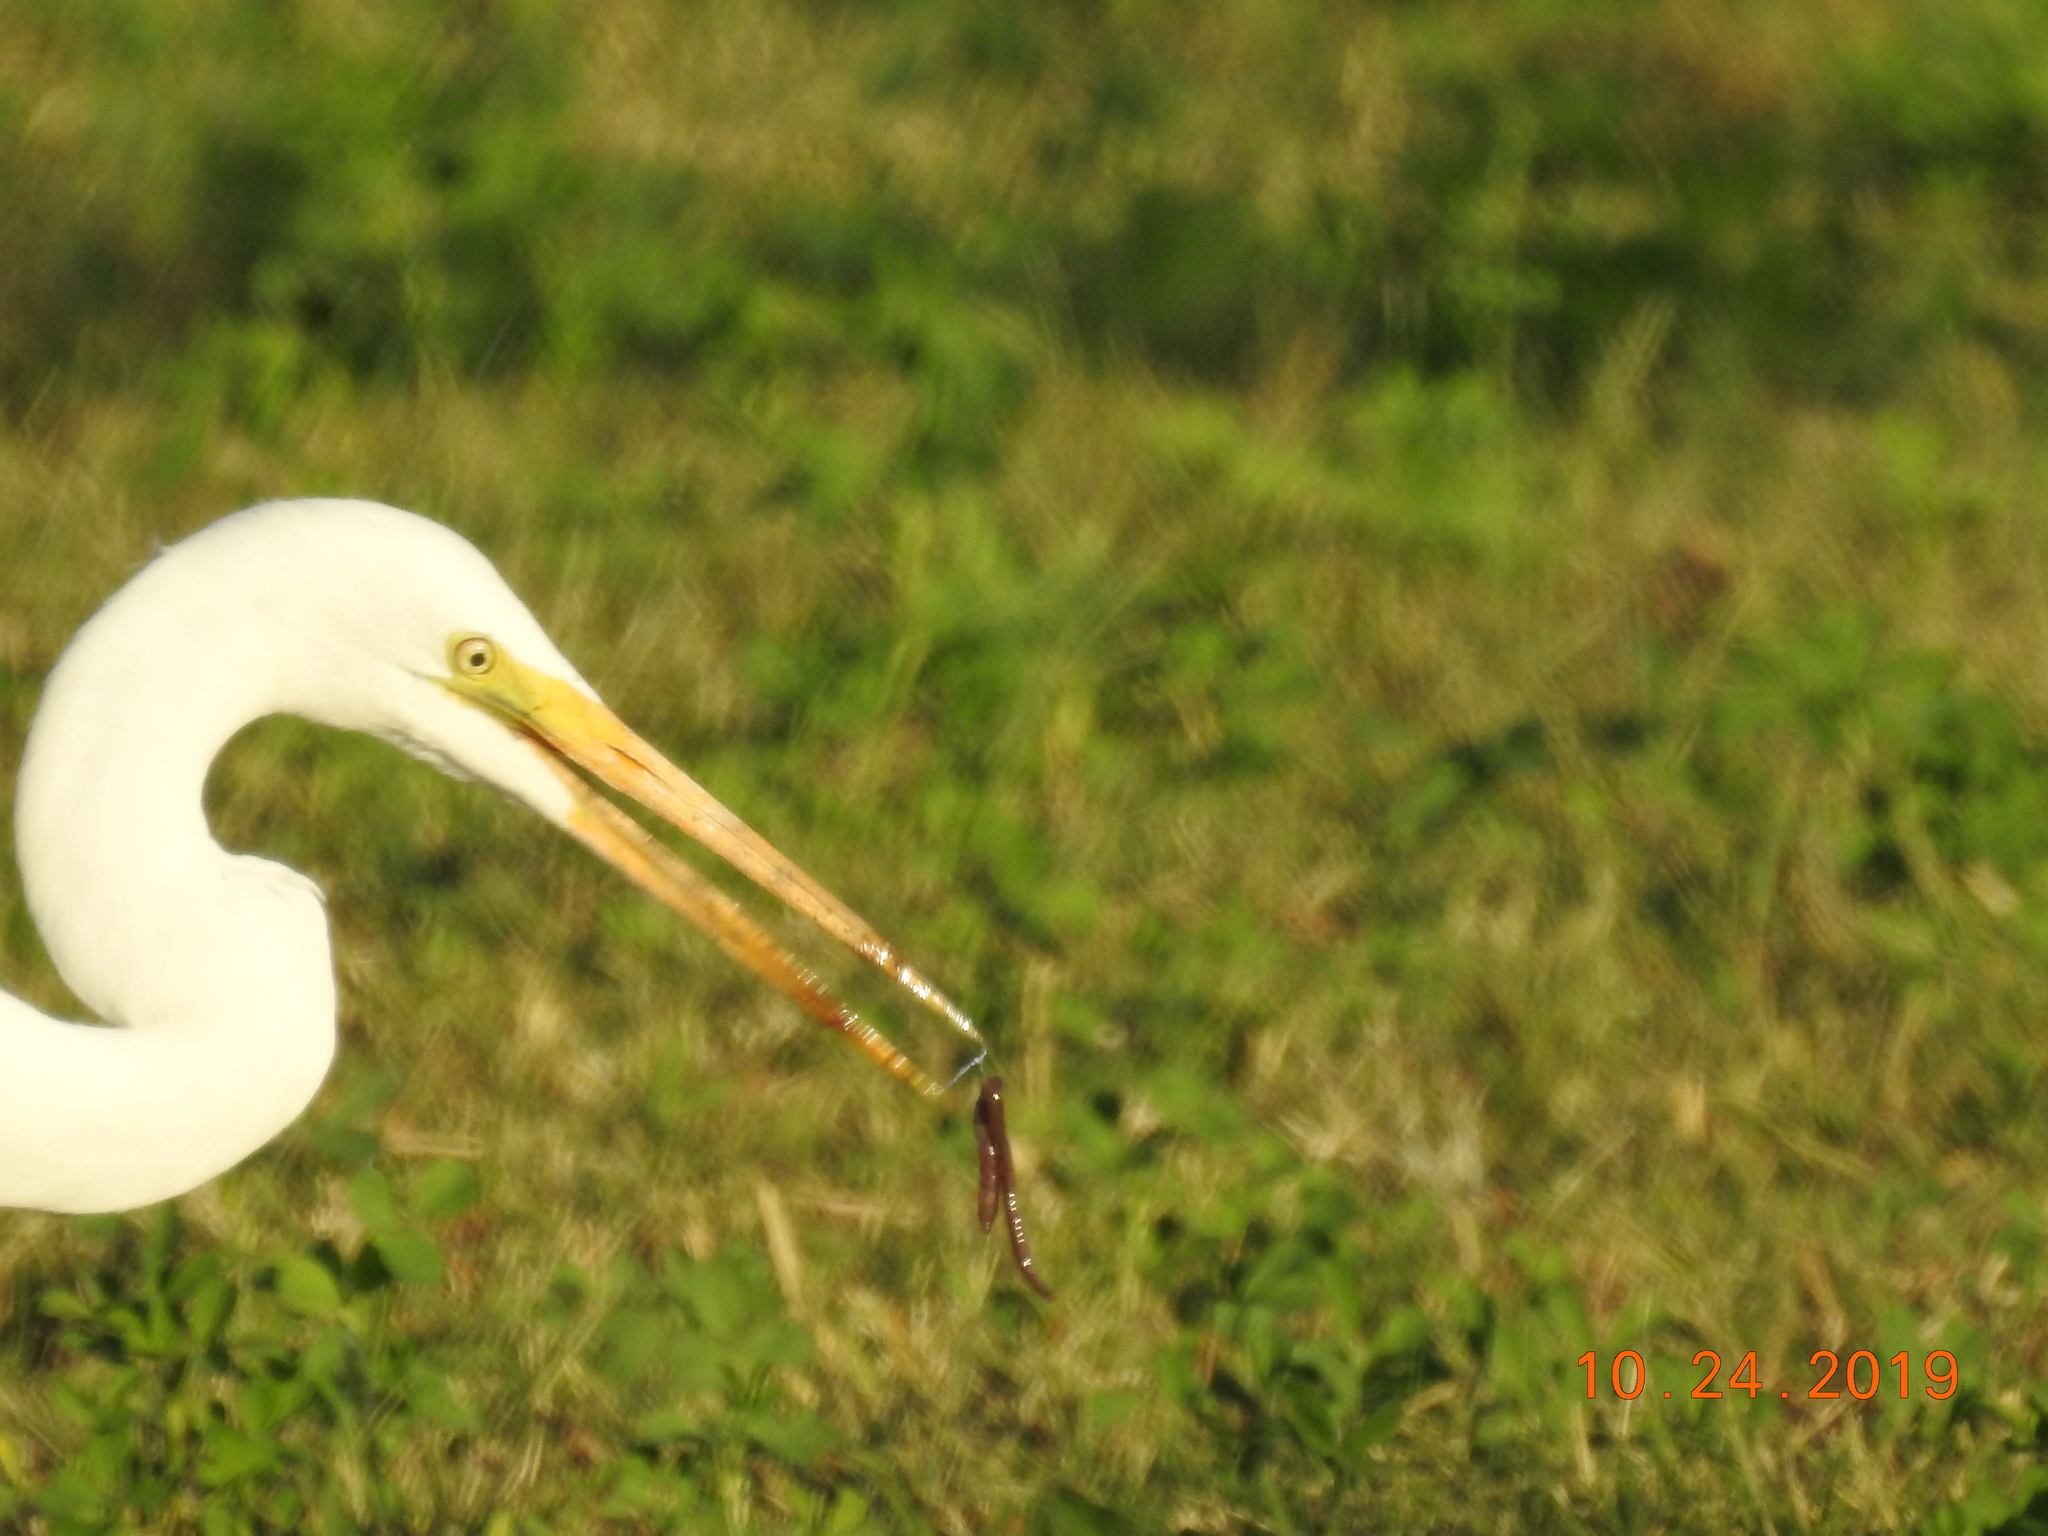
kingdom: Animalia
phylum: Chordata
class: Aves
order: Pelecaniformes
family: Ardeidae
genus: Ardea
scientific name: Ardea alba
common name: Great egret
